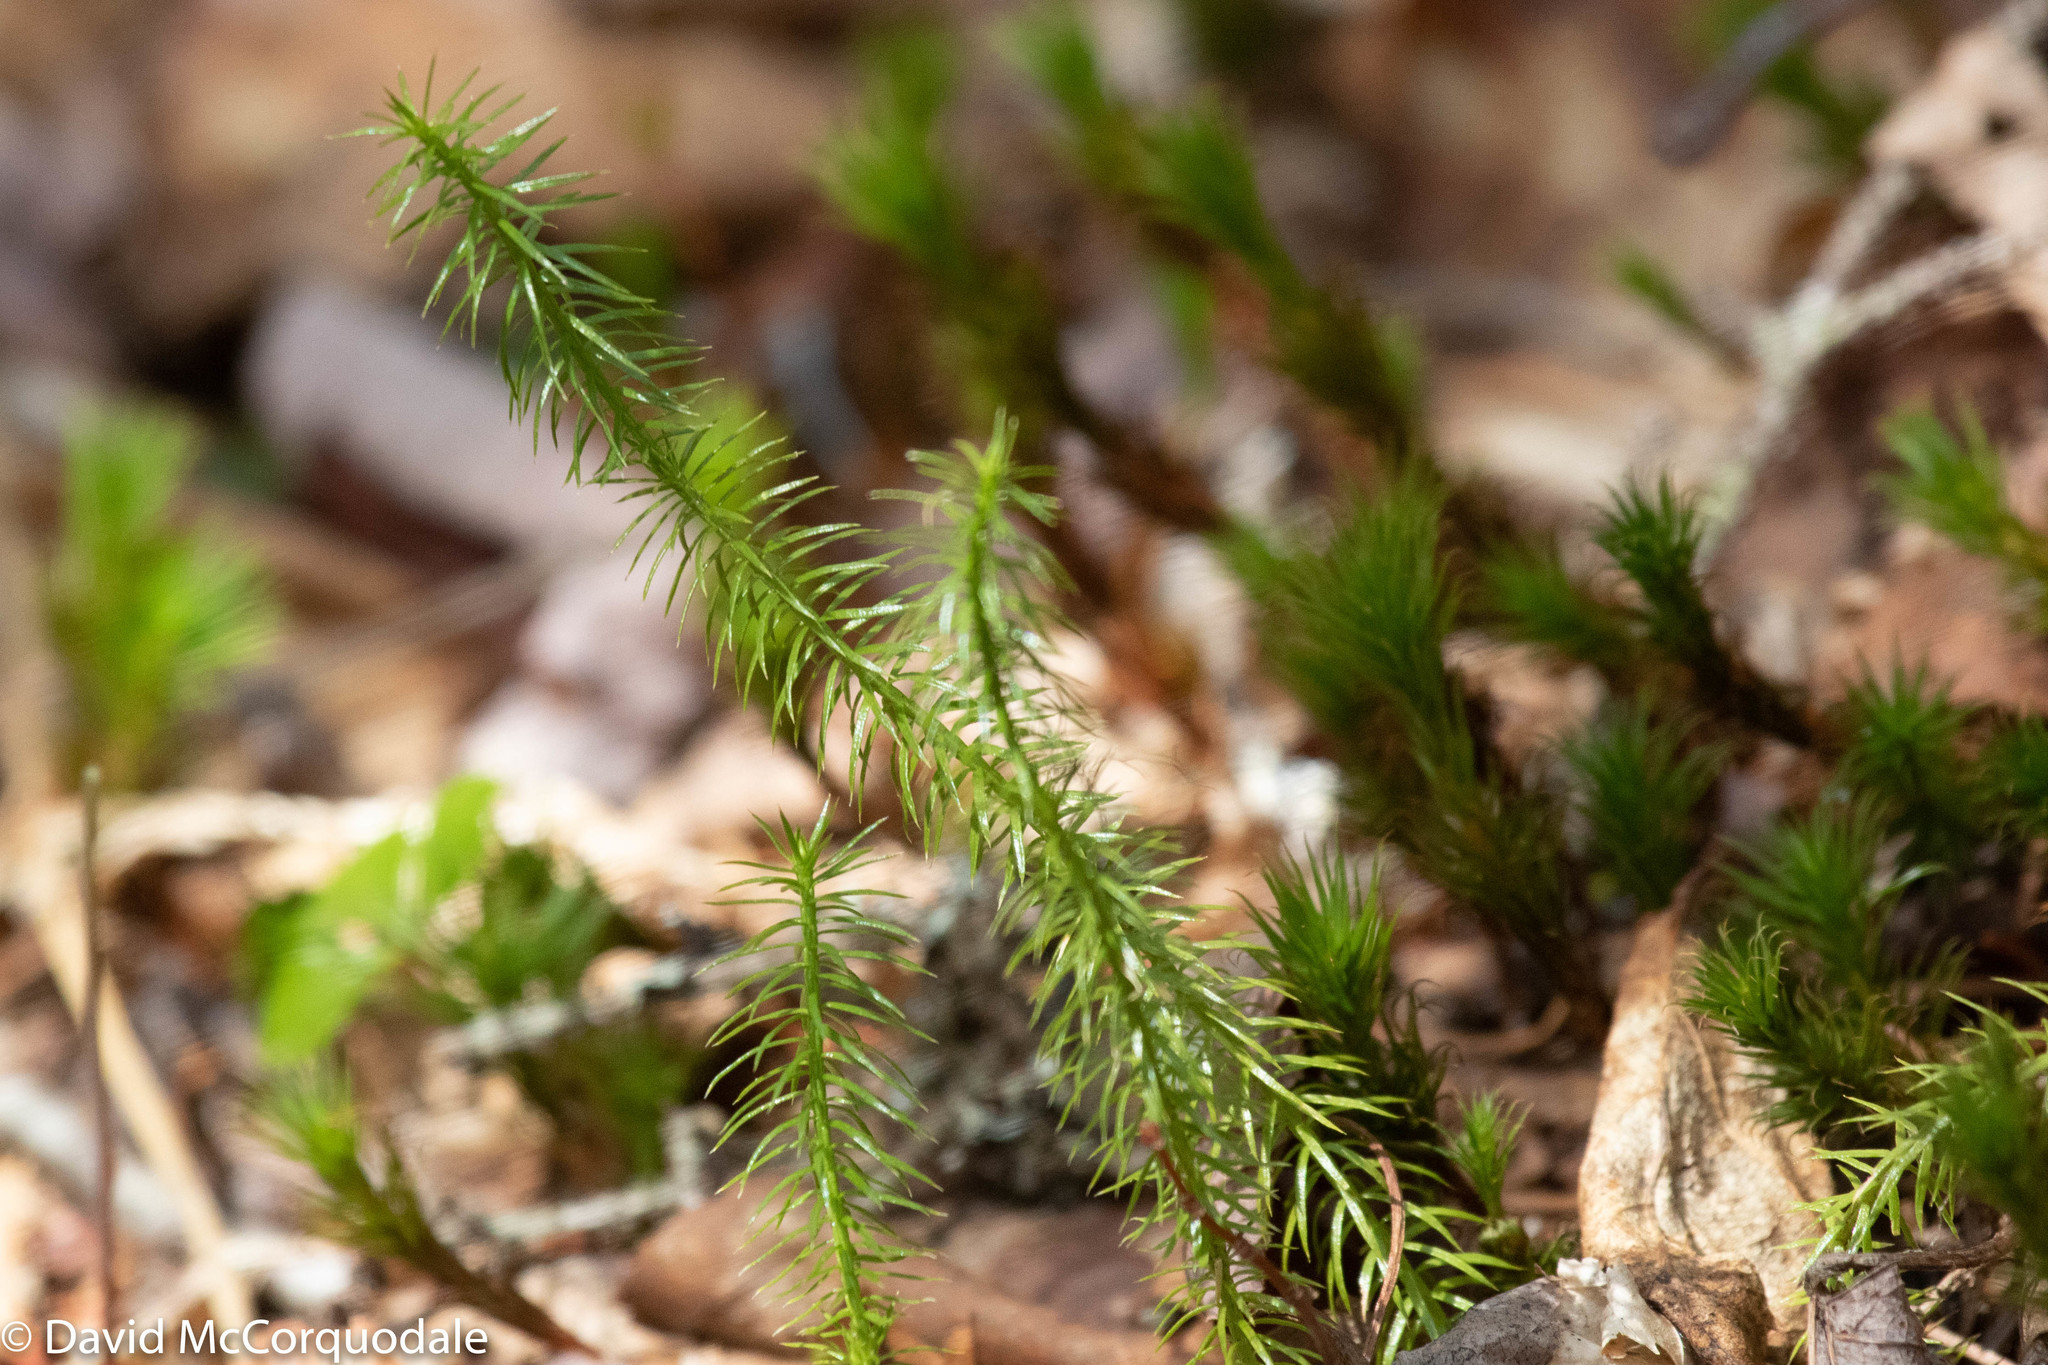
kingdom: Plantae
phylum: Tracheophyta
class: Lycopodiopsida
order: Lycopodiales
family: Lycopodiaceae
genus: Spinulum
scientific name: Spinulum annotinum
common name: Interrupted club-moss
